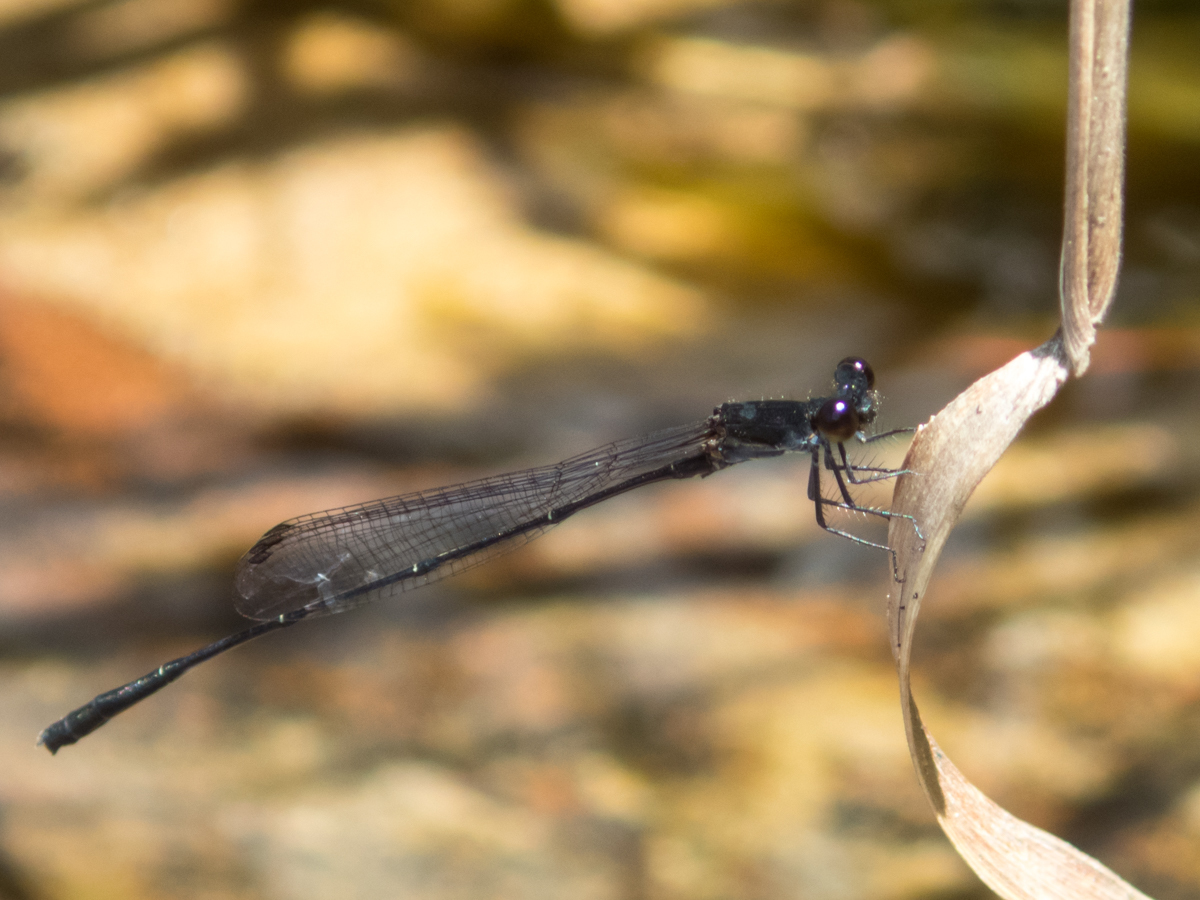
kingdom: Animalia
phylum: Arthropoda
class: Insecta
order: Odonata
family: Platycnemididae
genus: Prodasineura
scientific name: Prodasineura autumnalis
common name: Black threadtail
